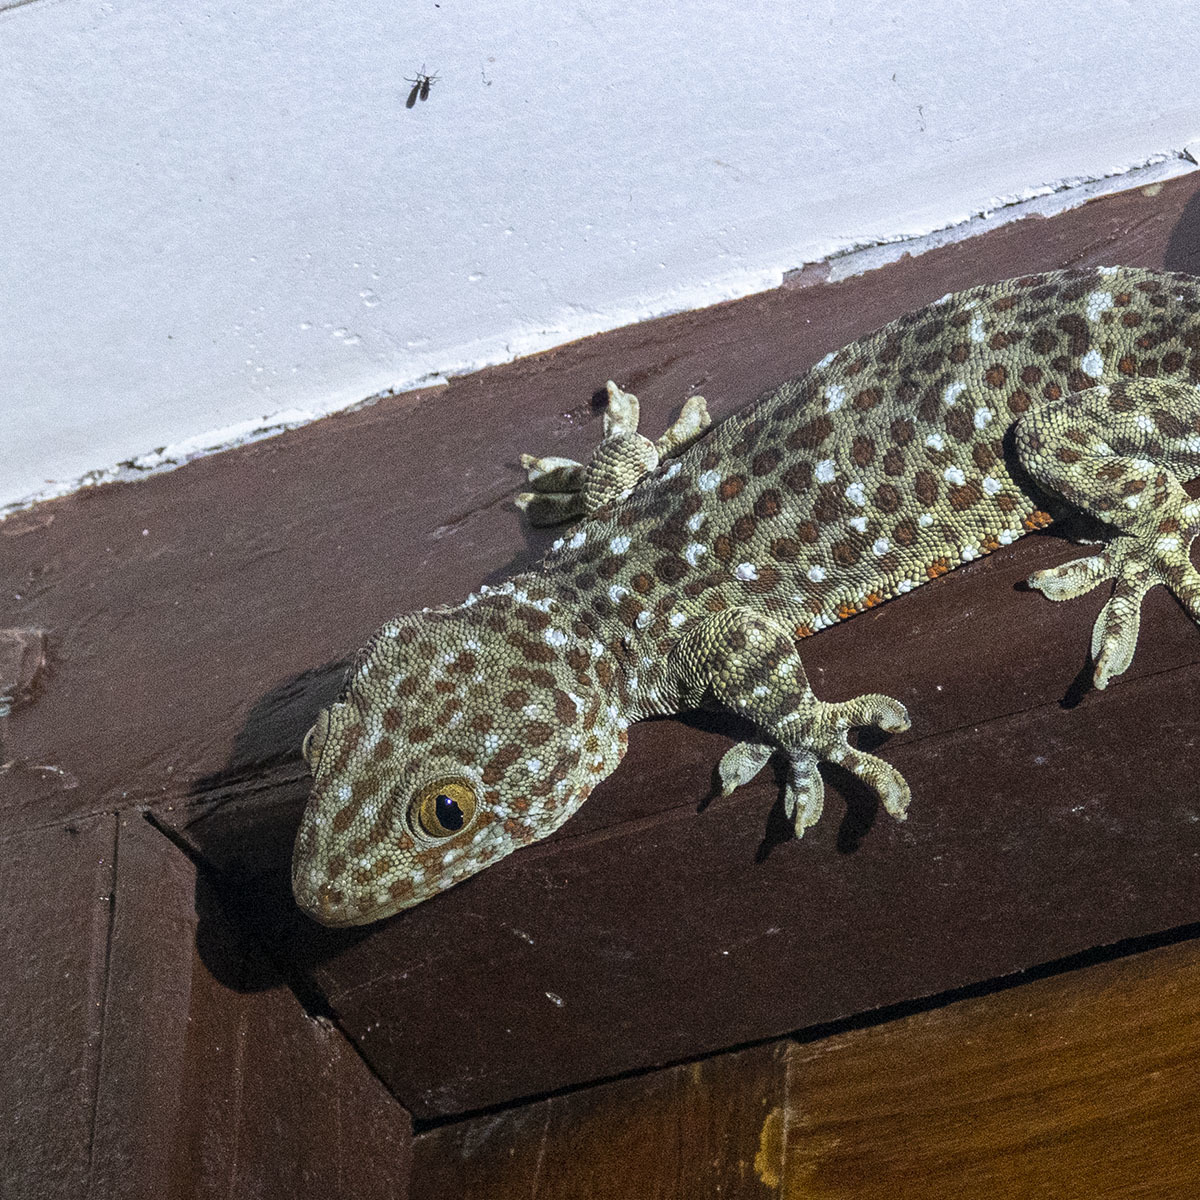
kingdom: Animalia
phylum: Chordata
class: Squamata
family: Gekkonidae
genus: Gekko
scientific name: Gekko gecko
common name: Tokay gecko
